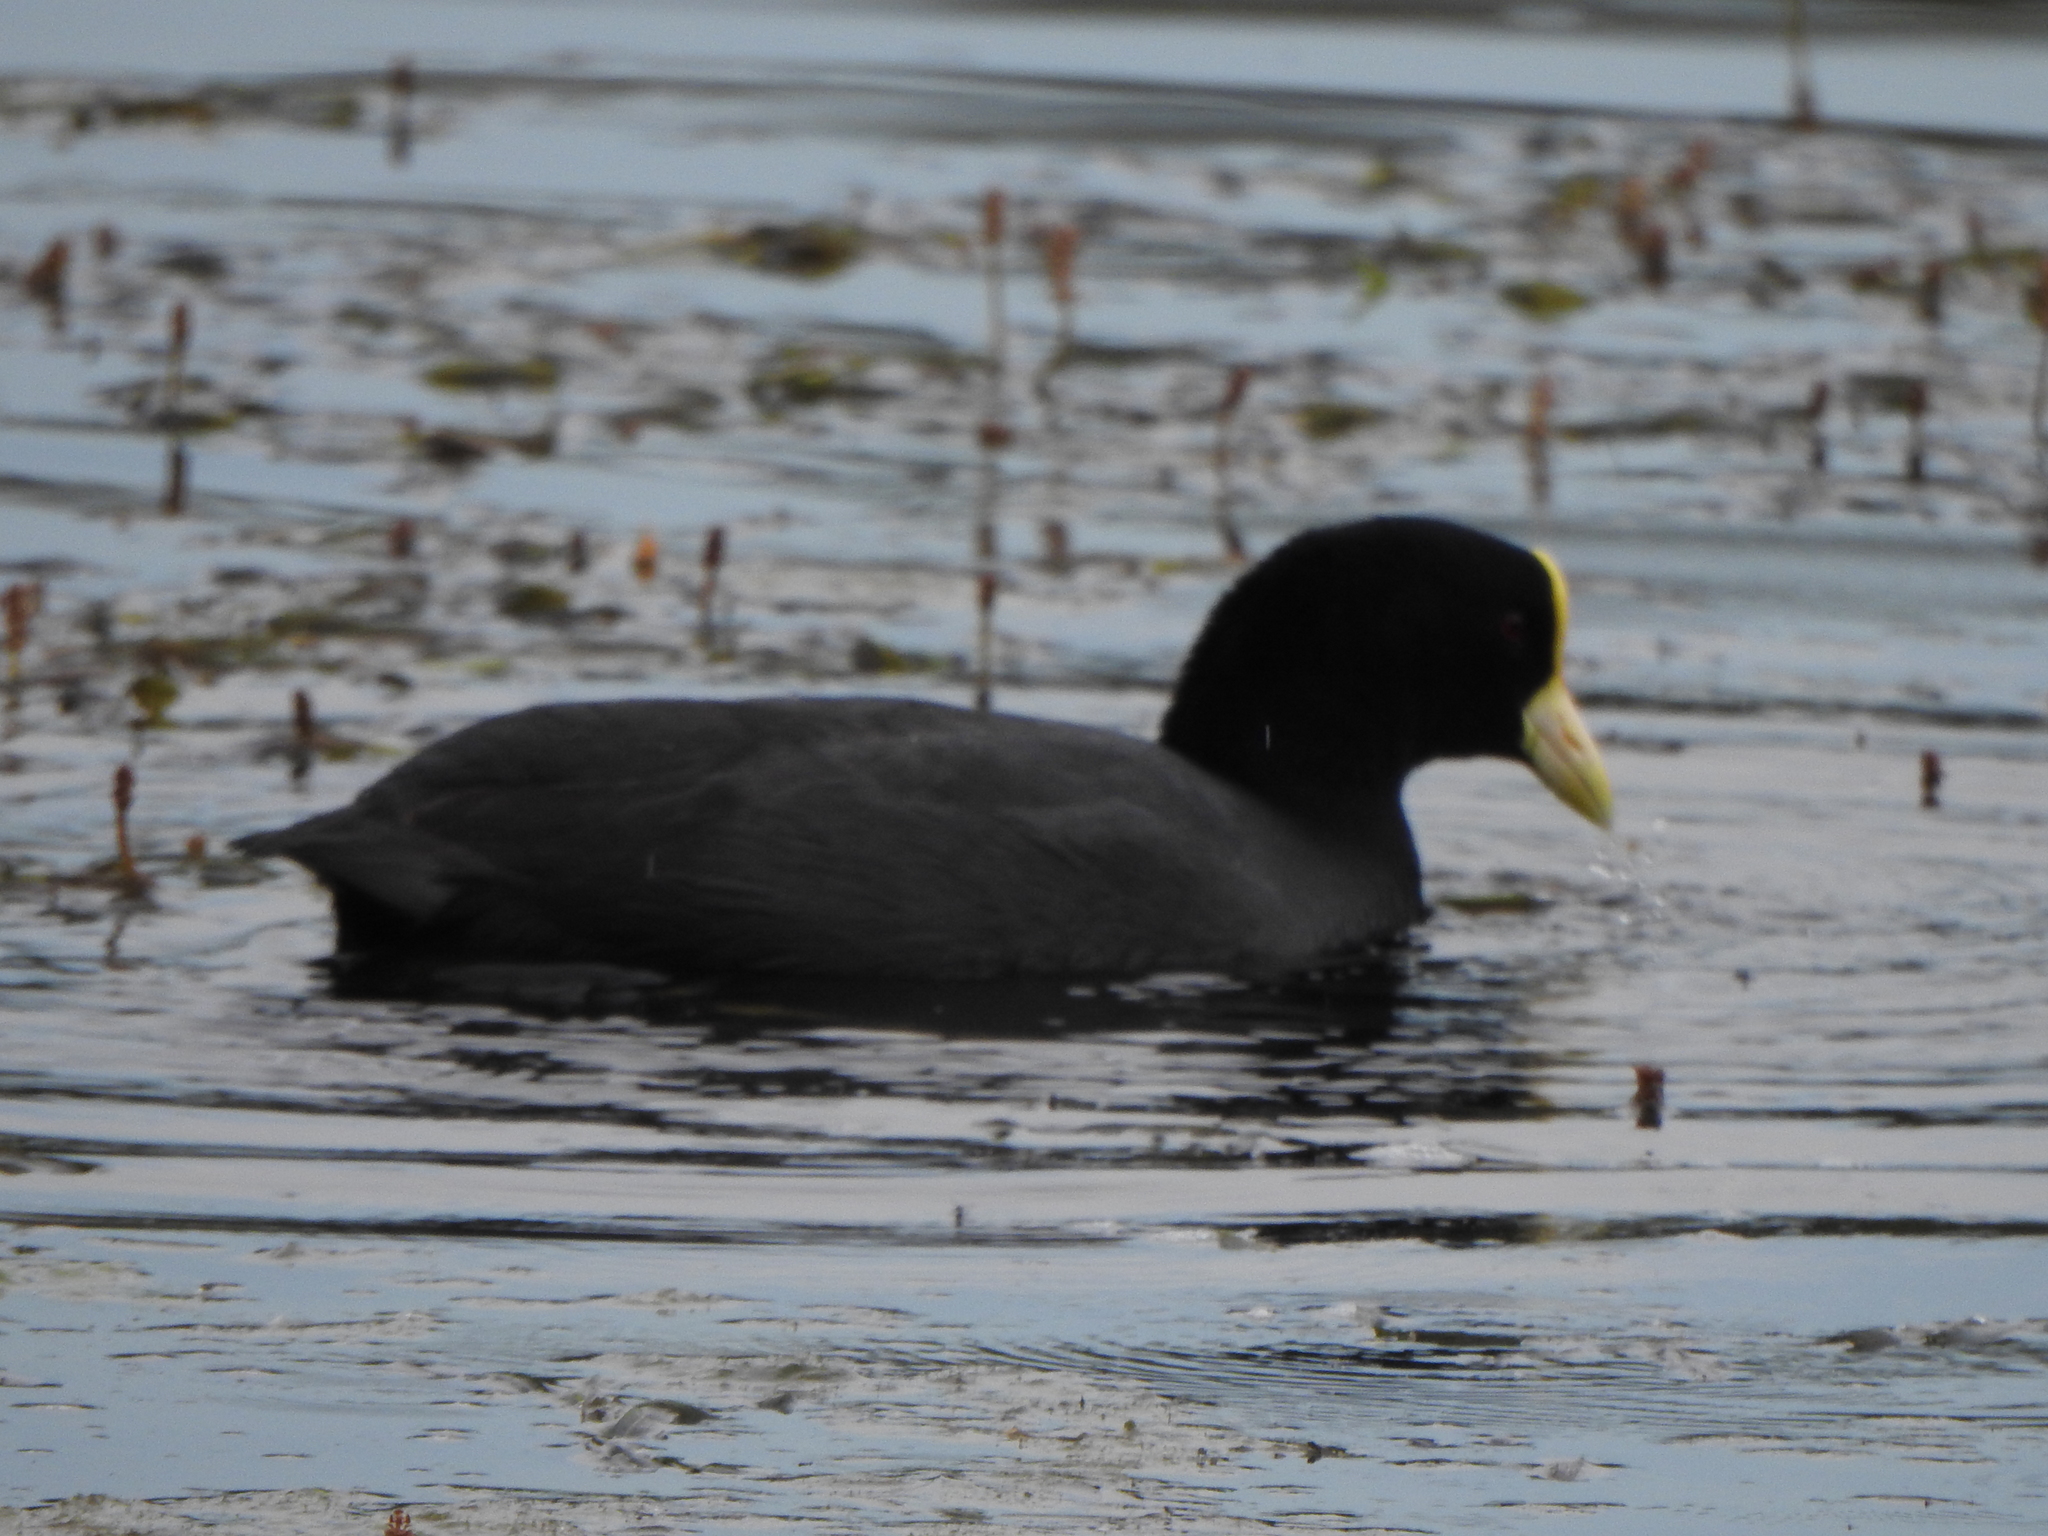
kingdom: Animalia
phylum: Chordata
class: Aves
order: Gruiformes
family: Rallidae
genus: Fulica
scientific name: Fulica leucoptera
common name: White-winged coot
